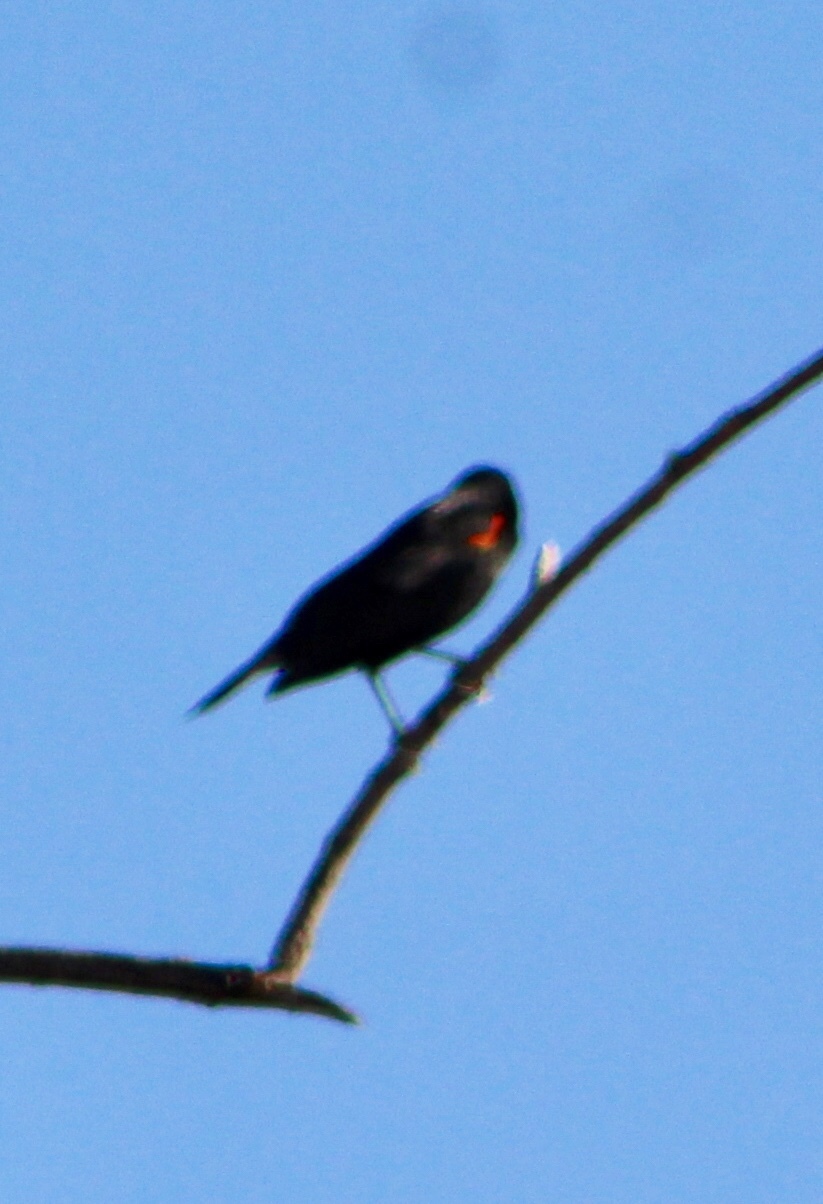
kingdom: Animalia
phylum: Chordata
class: Aves
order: Passeriformes
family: Icteridae
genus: Agelaius
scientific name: Agelaius phoeniceus
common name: Red-winged blackbird
